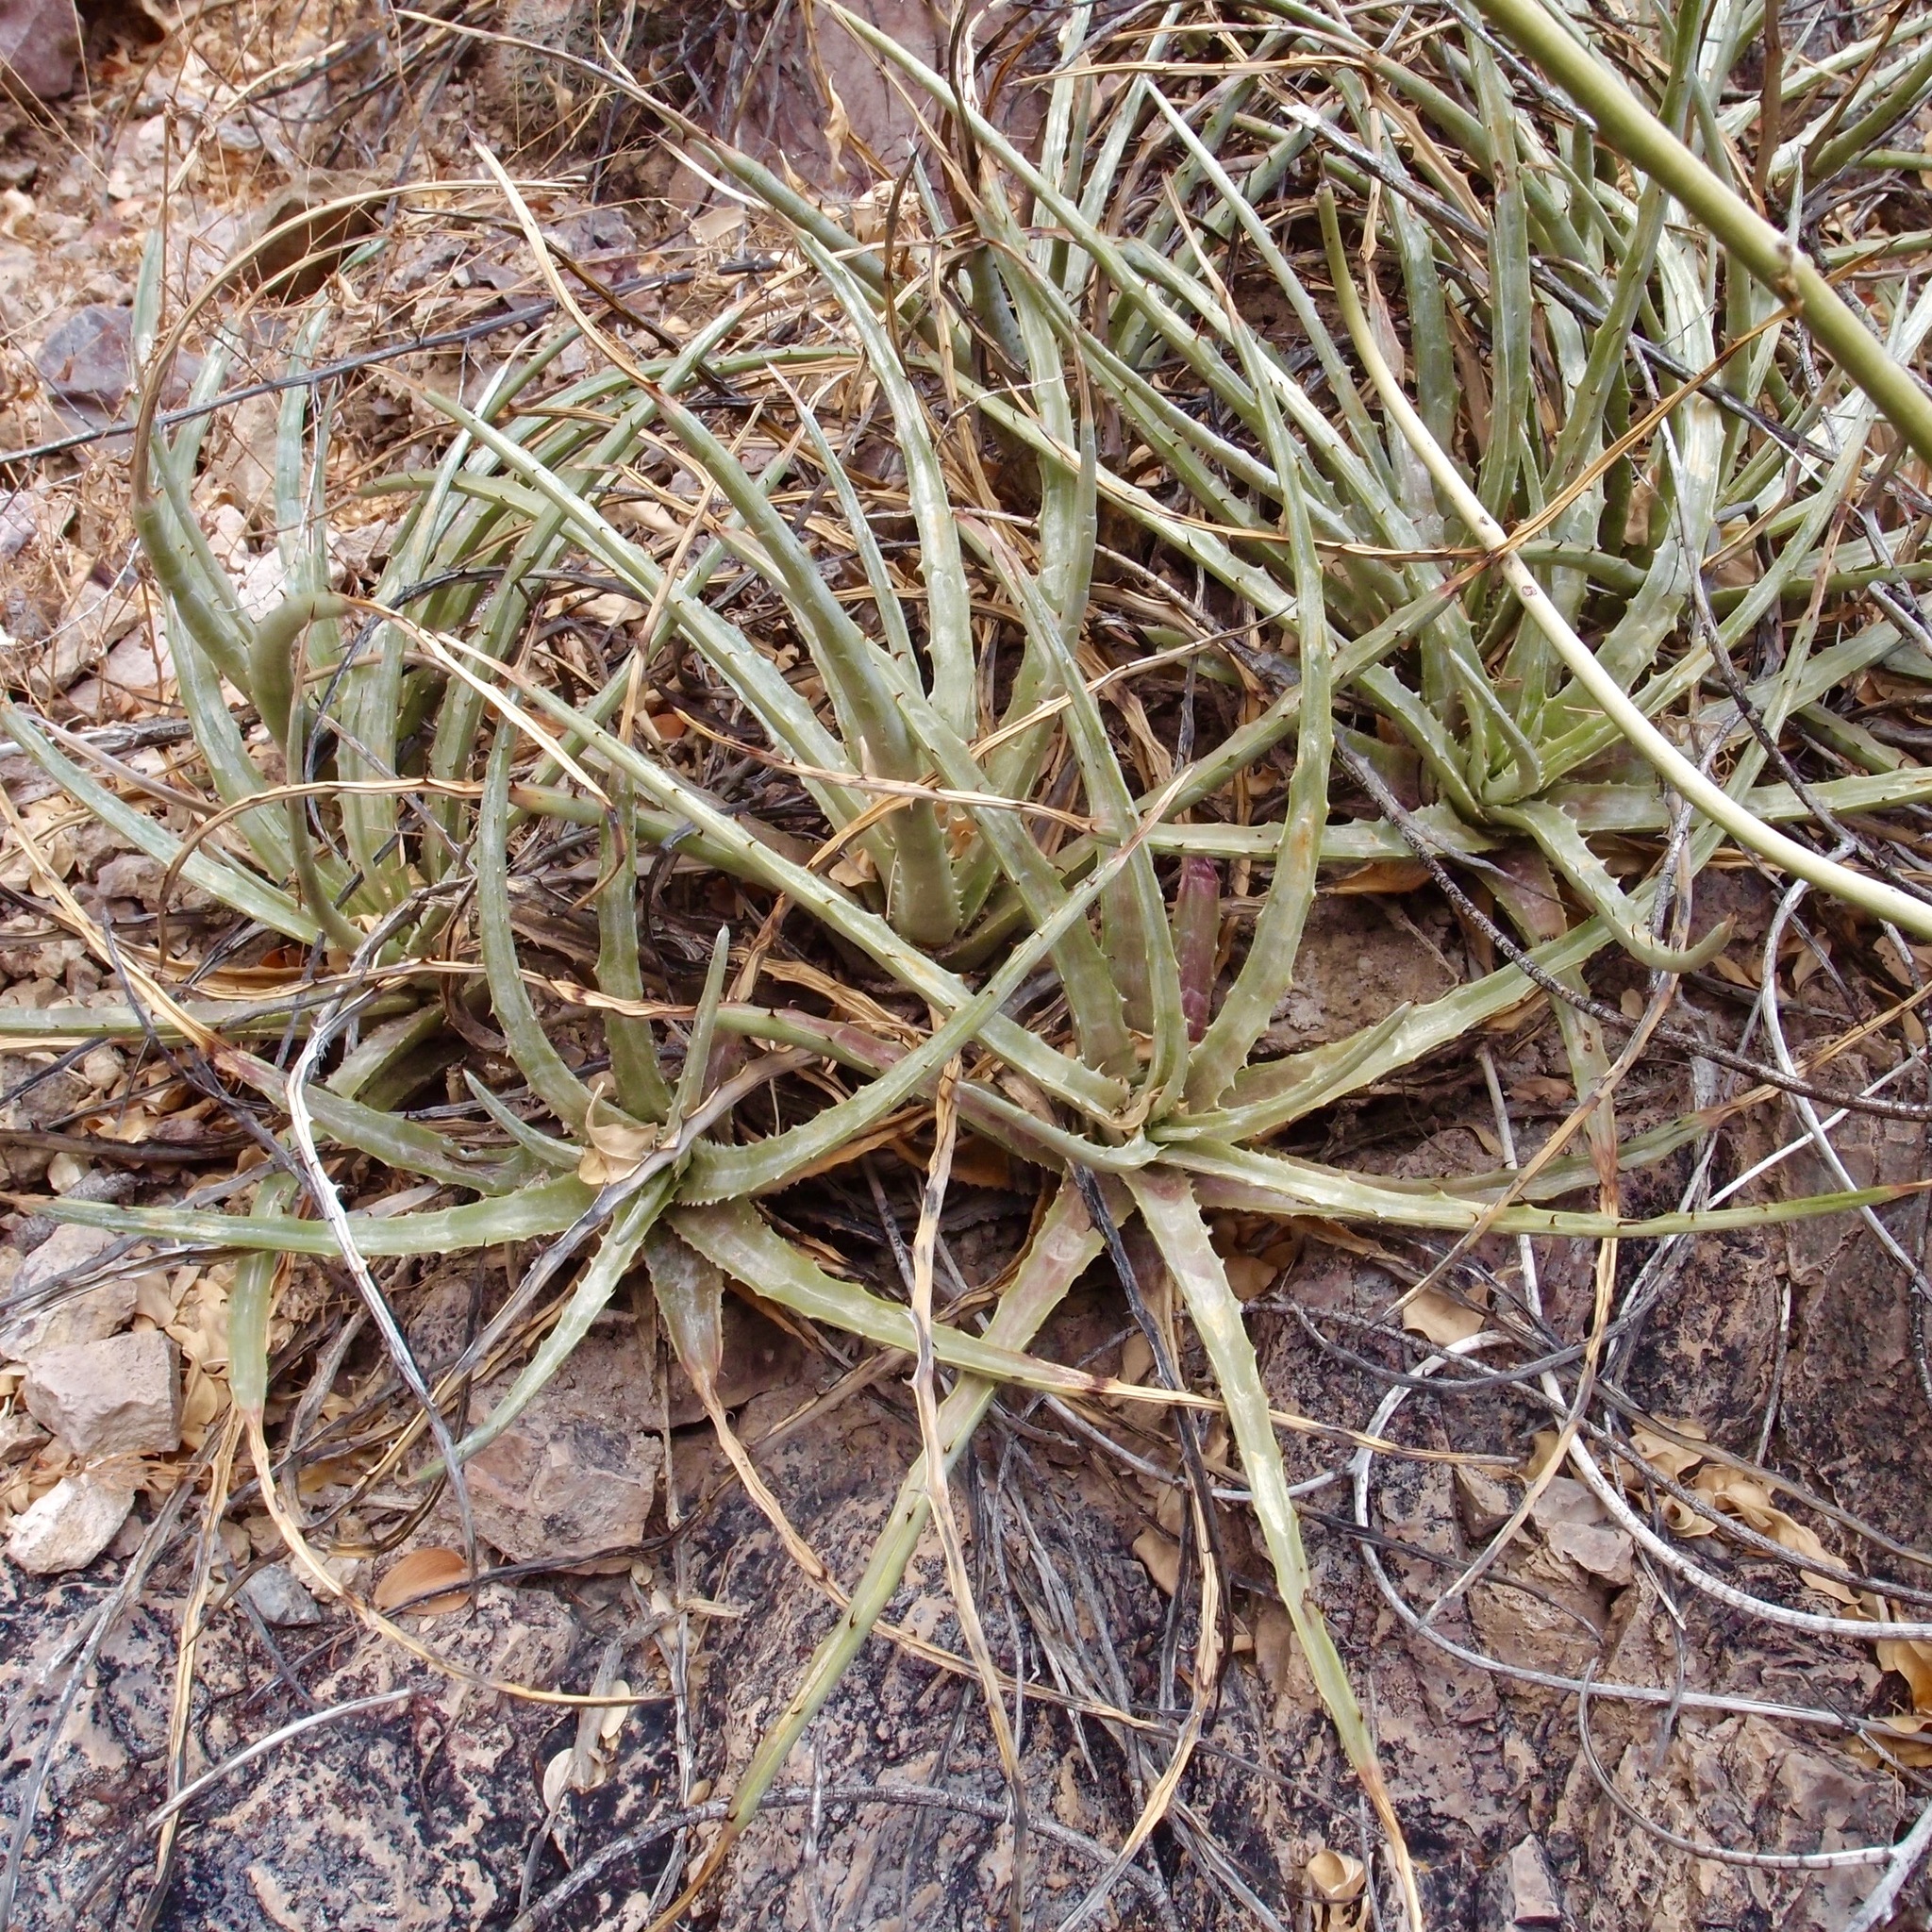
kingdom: Plantae
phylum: Tracheophyta
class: Liliopsida
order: Poales
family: Bromeliaceae
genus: Hechtia
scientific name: Hechtia montana
